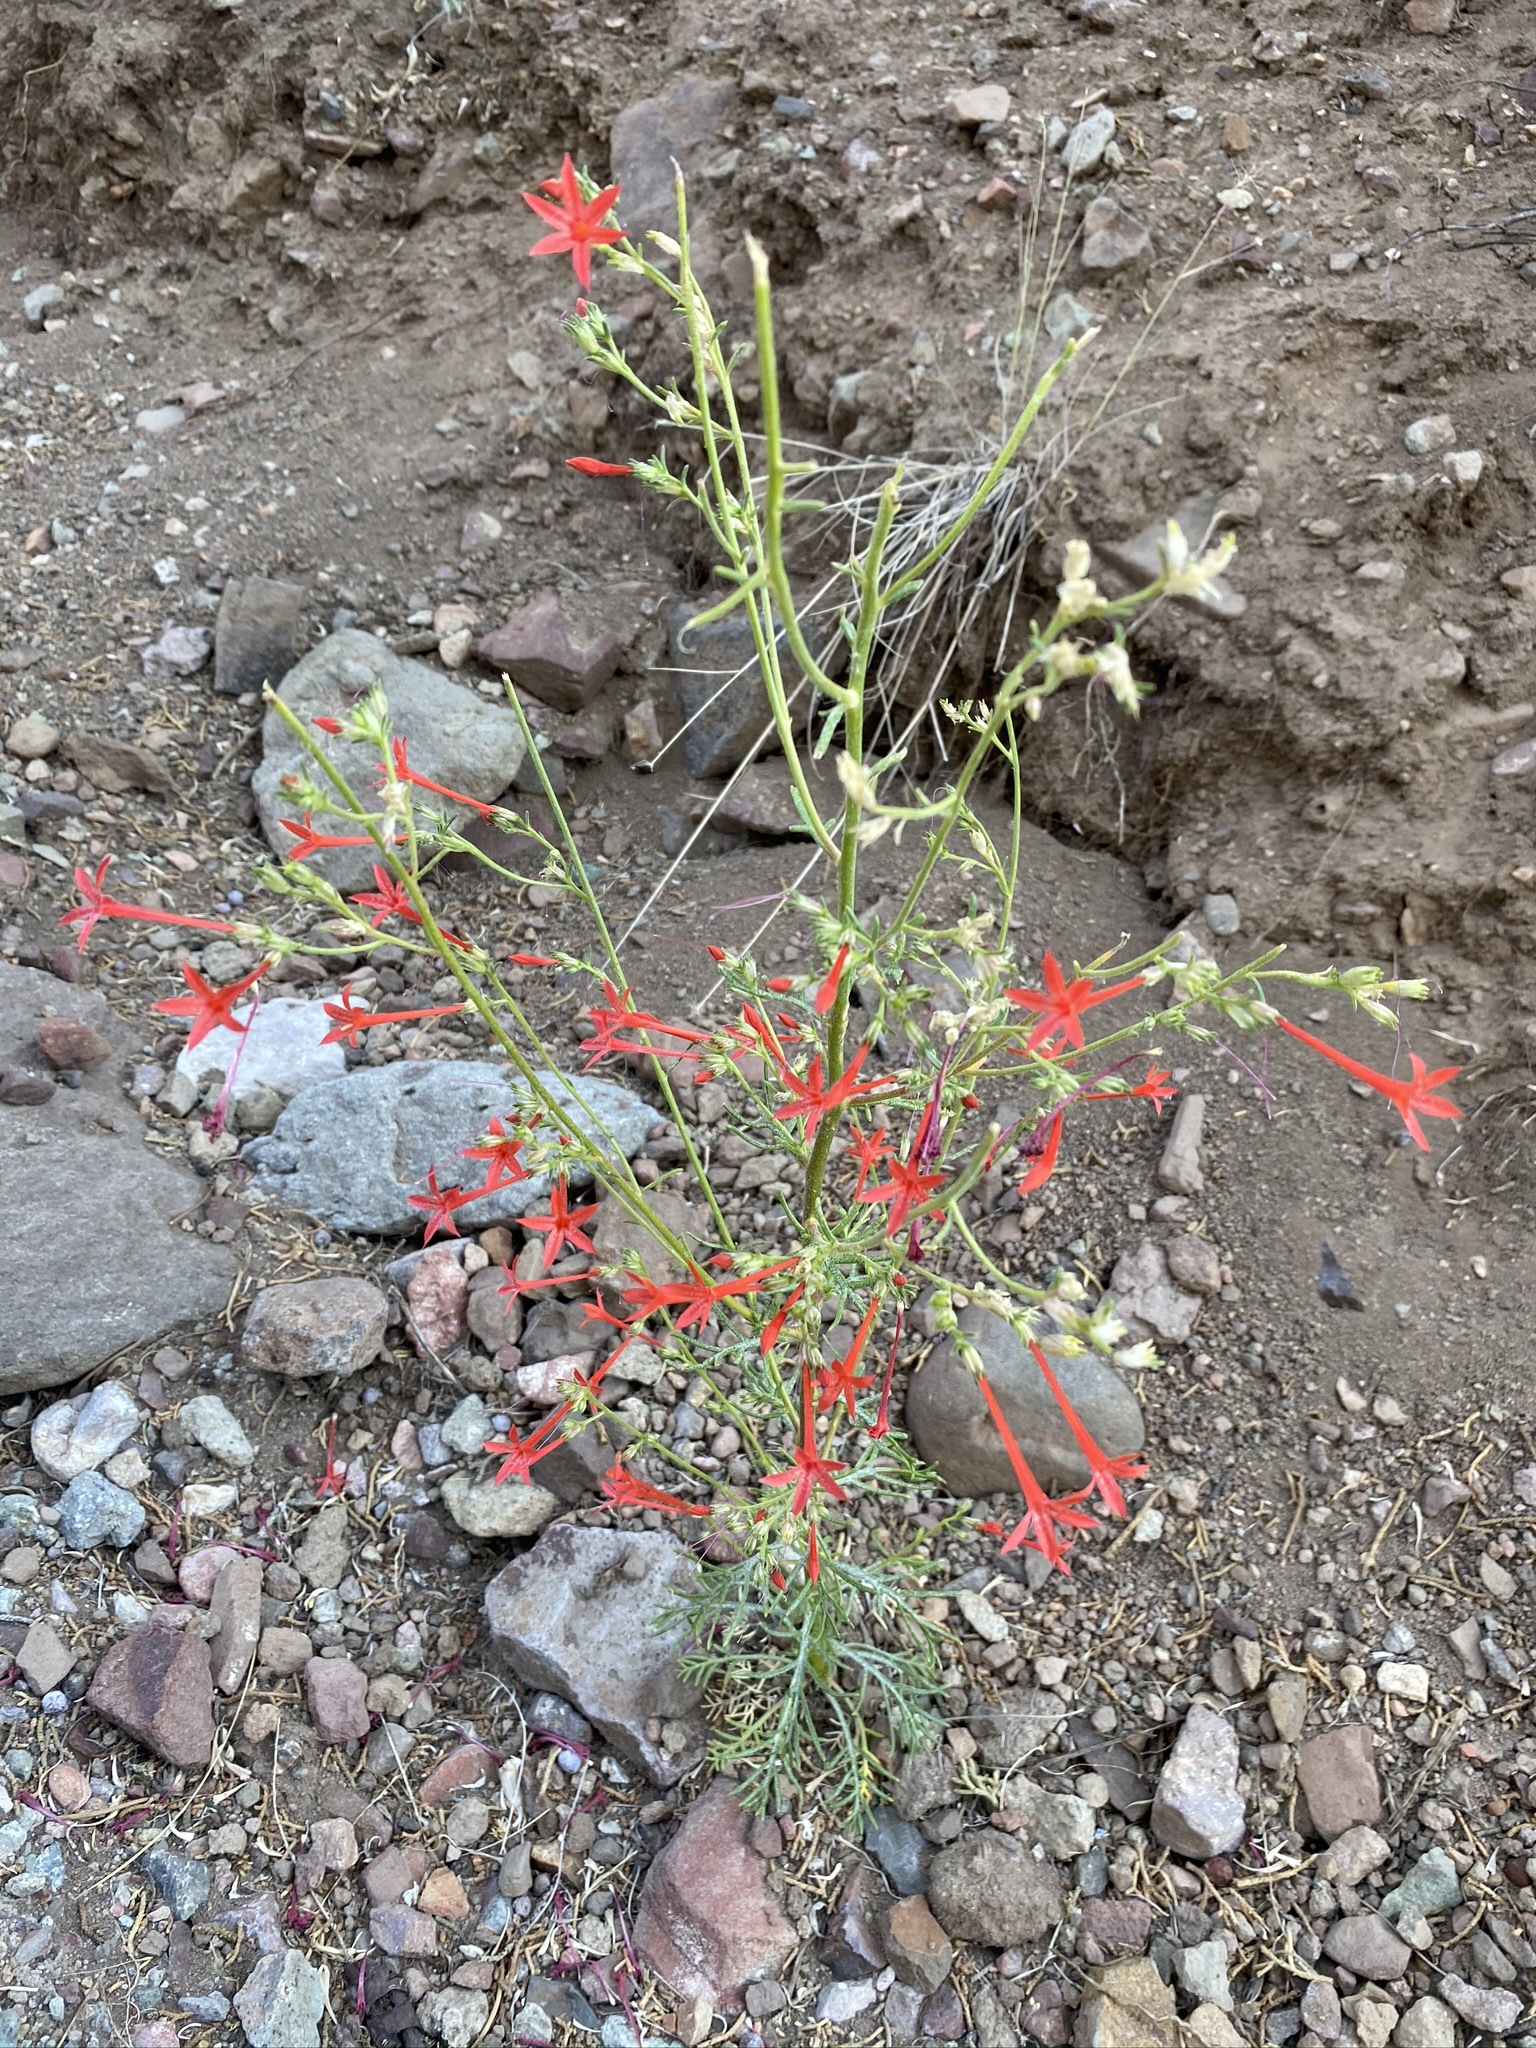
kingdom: Plantae
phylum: Tracheophyta
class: Magnoliopsida
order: Ericales
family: Polemoniaceae
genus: Ipomopsis
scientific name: Ipomopsis arizonica
